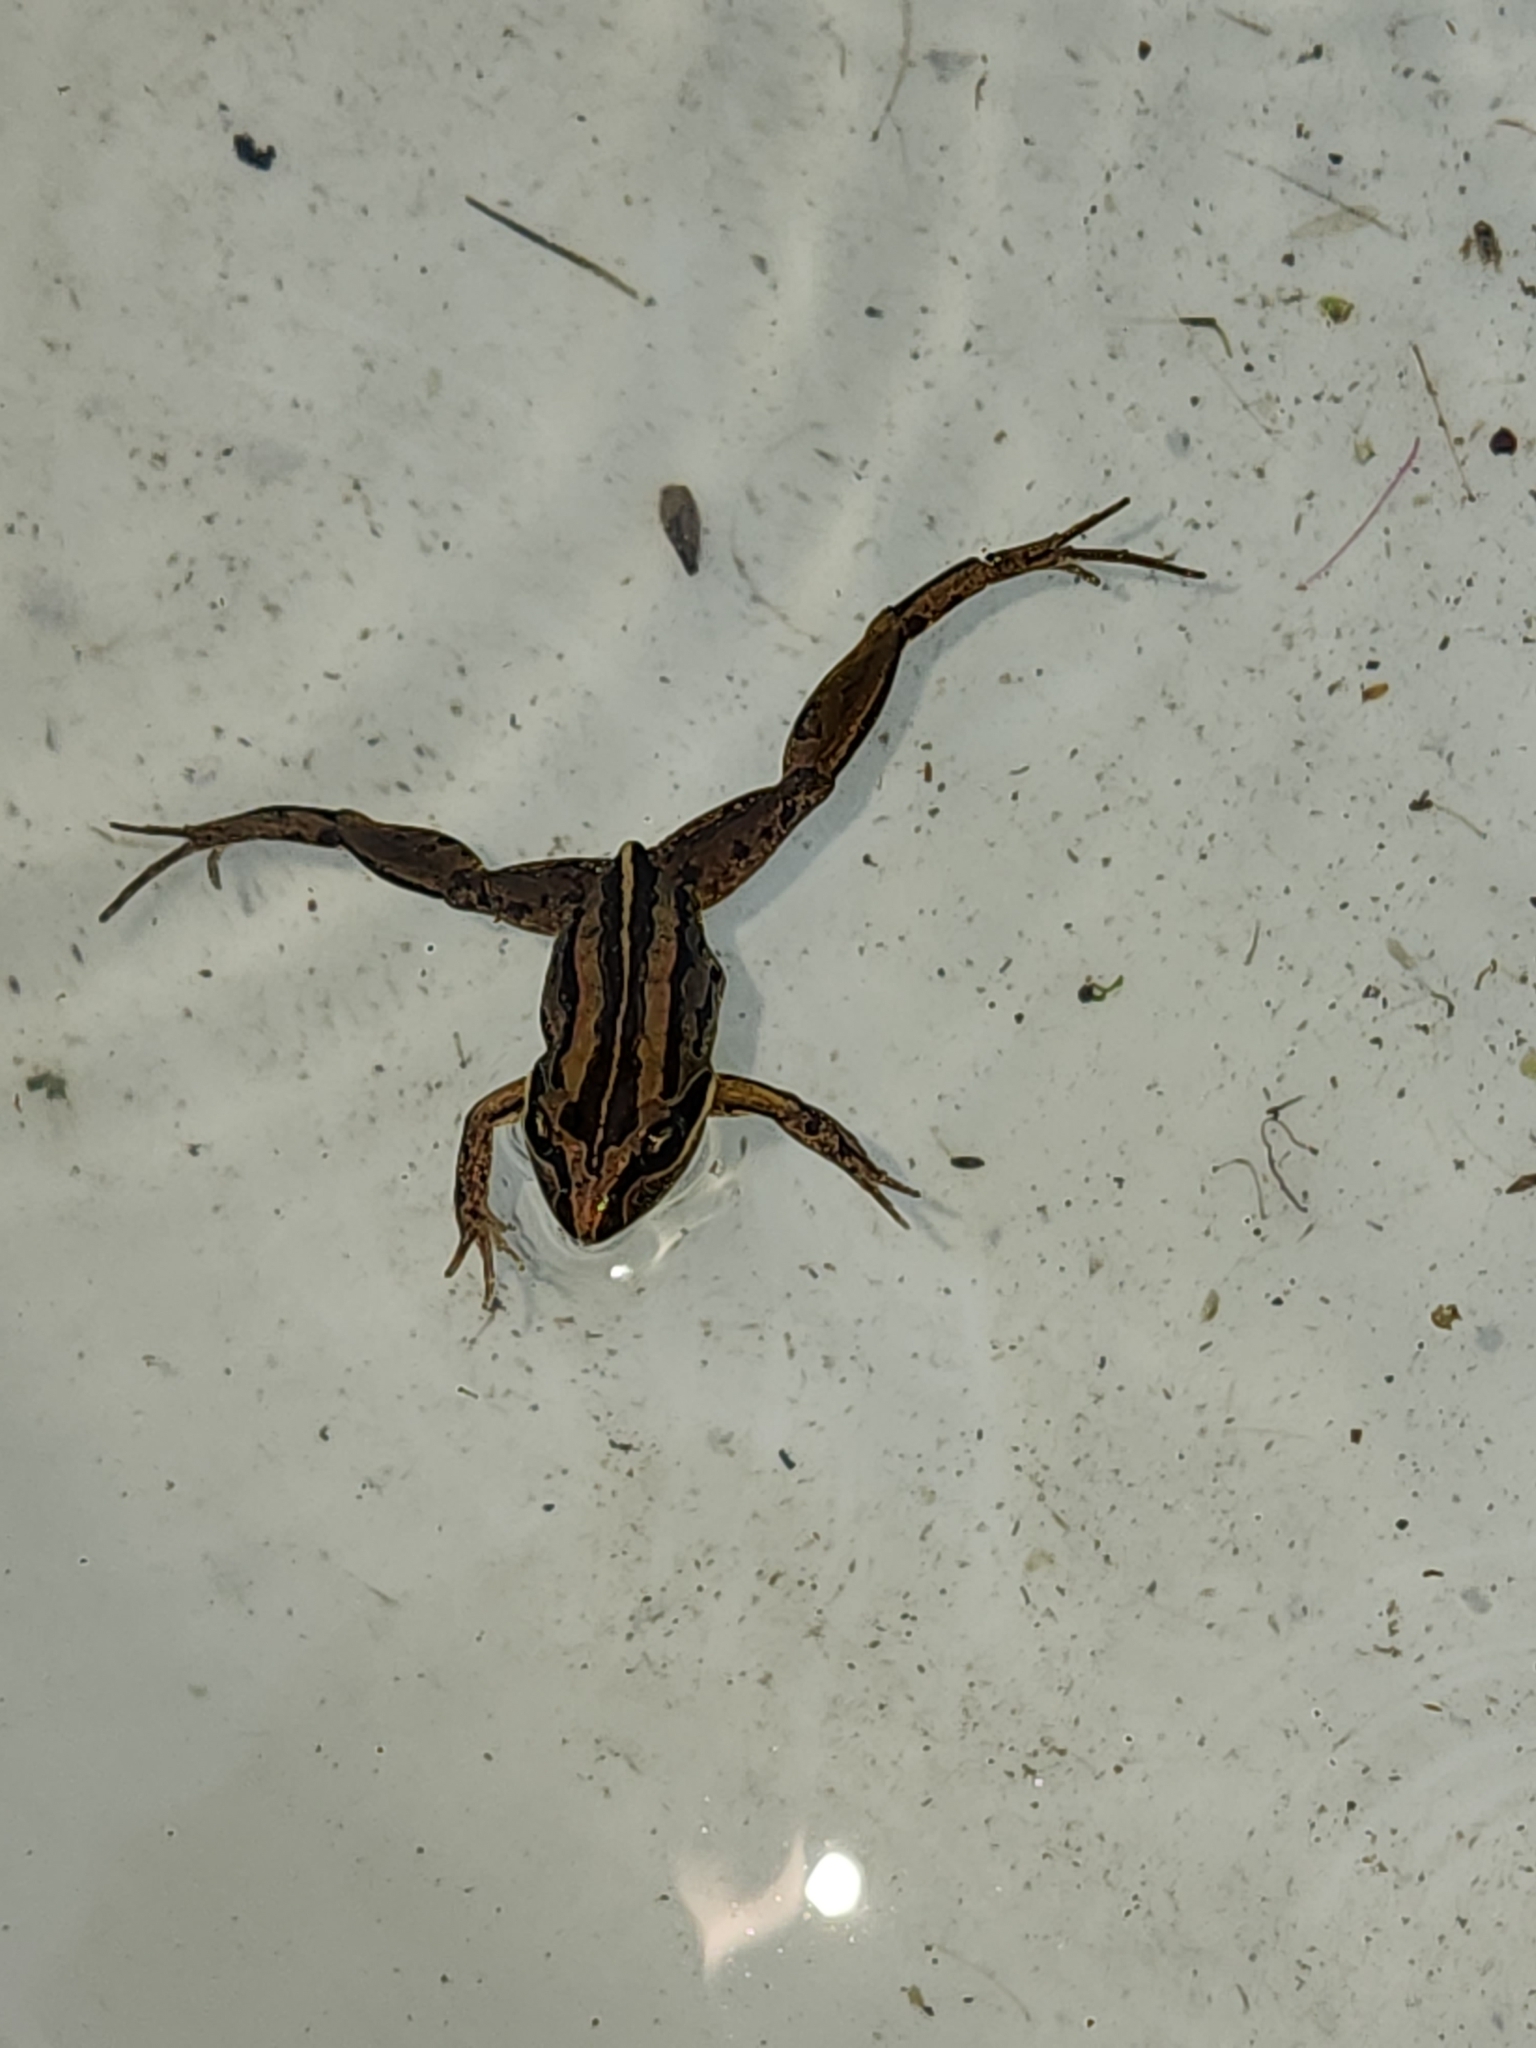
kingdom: Animalia
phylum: Chordata
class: Amphibia
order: Anura
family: Limnodynastidae
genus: Limnodynastes
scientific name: Limnodynastes peronii
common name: Brown frog
